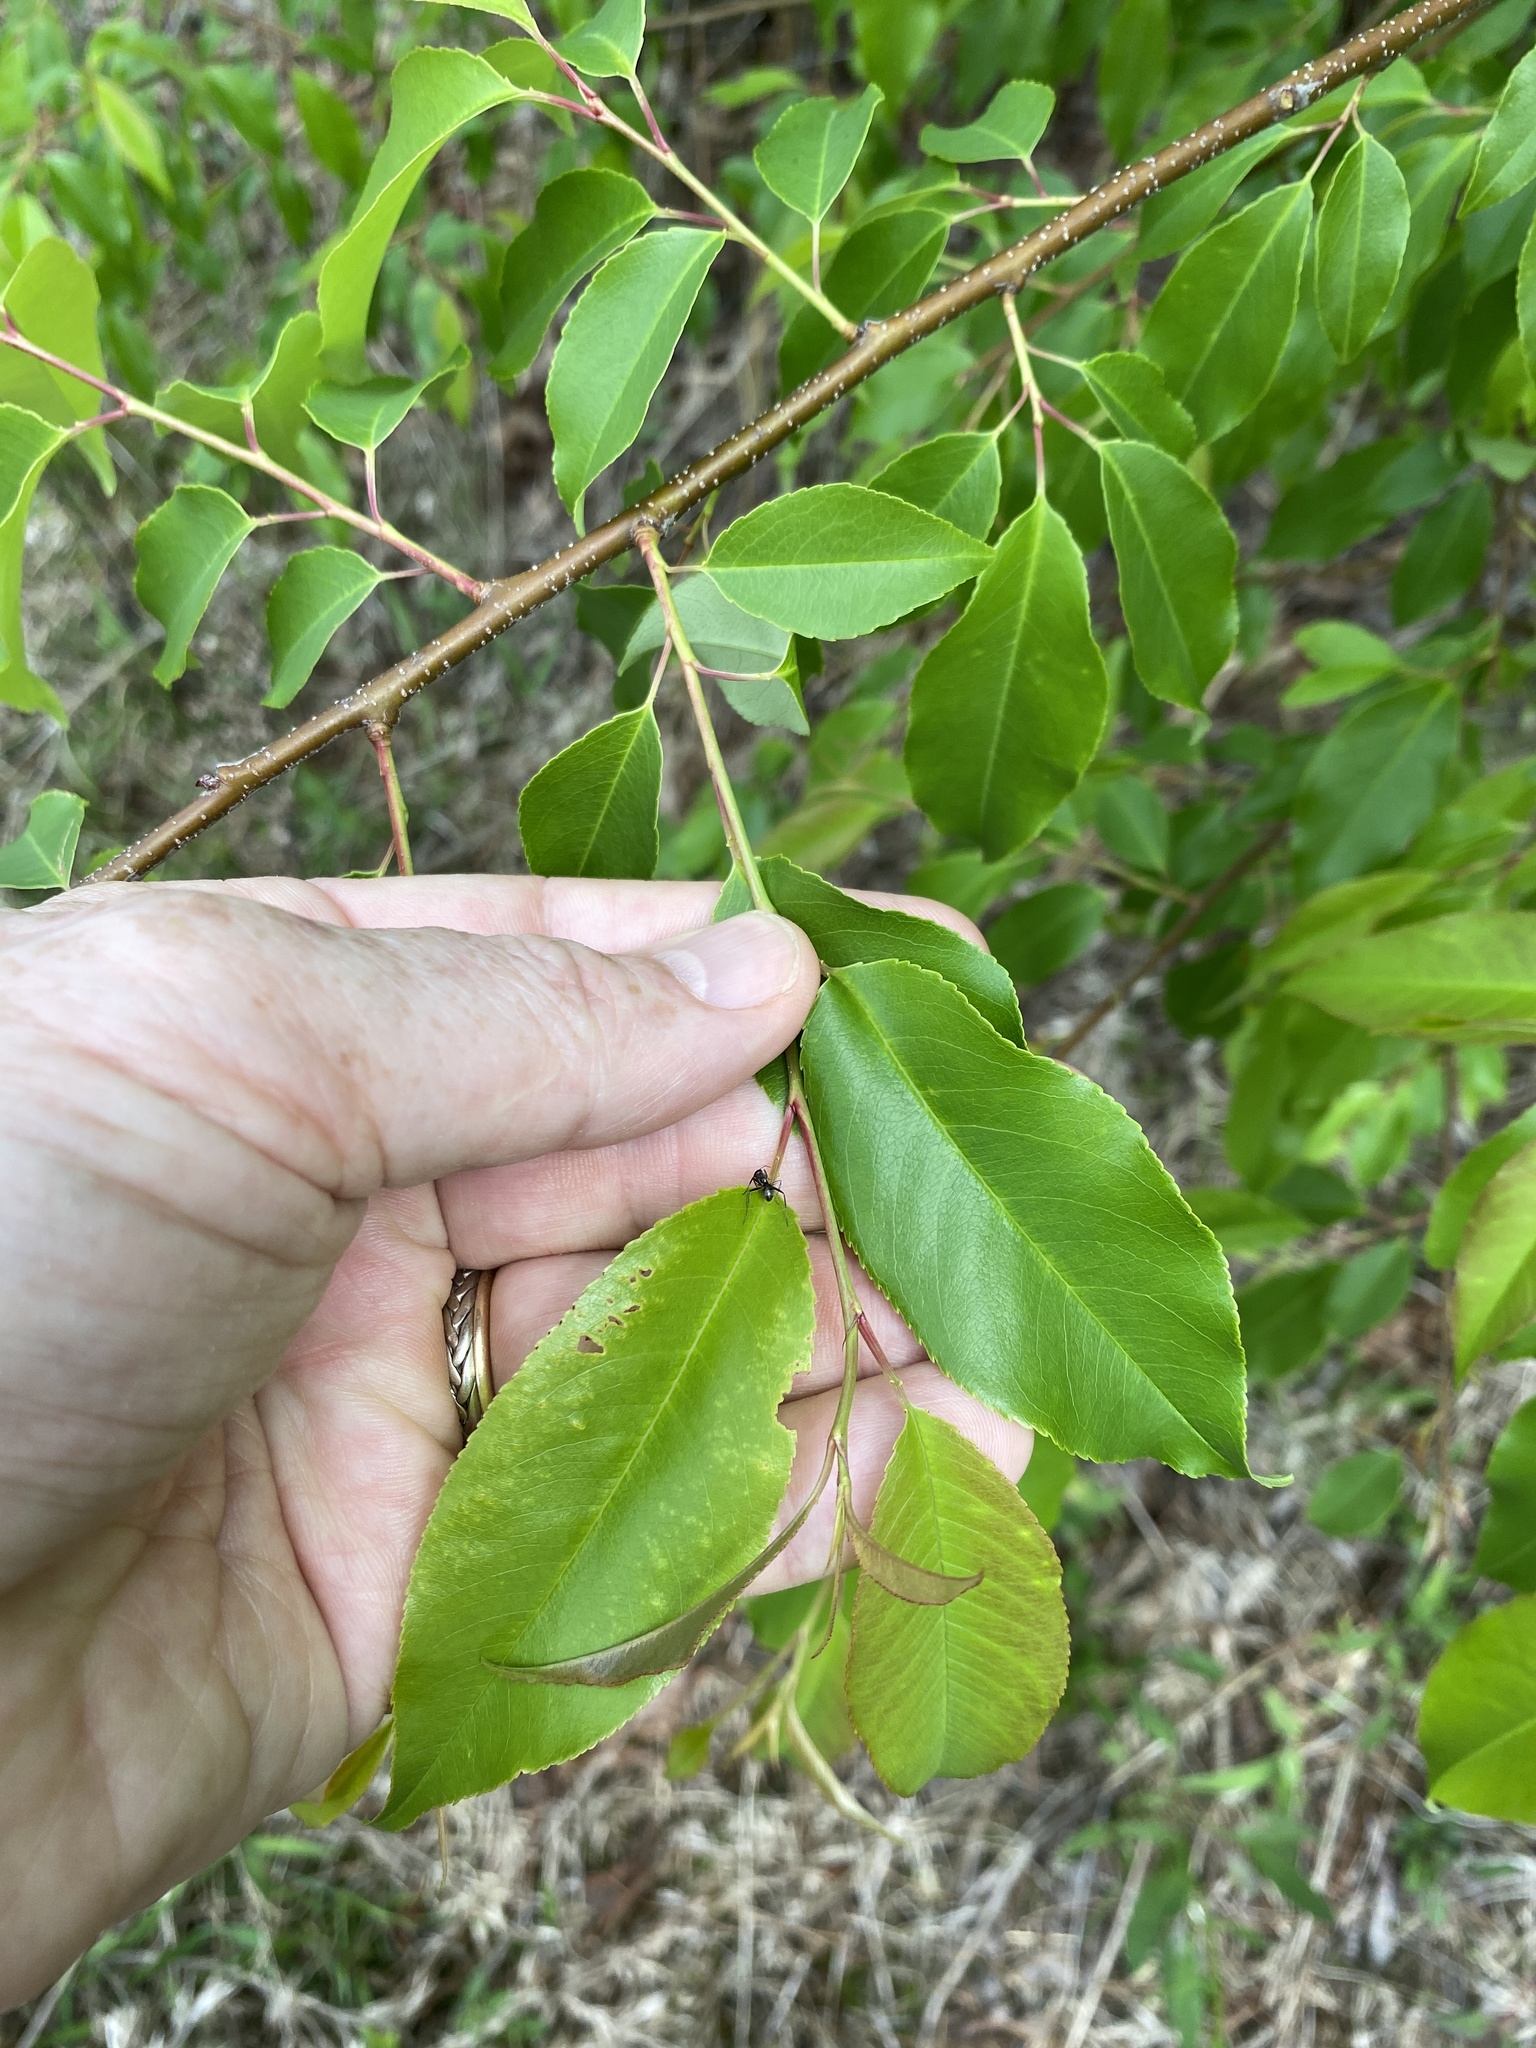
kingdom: Plantae
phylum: Tracheophyta
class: Magnoliopsida
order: Rosales
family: Rosaceae
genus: Prunus
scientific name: Prunus serotina
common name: Black cherry
